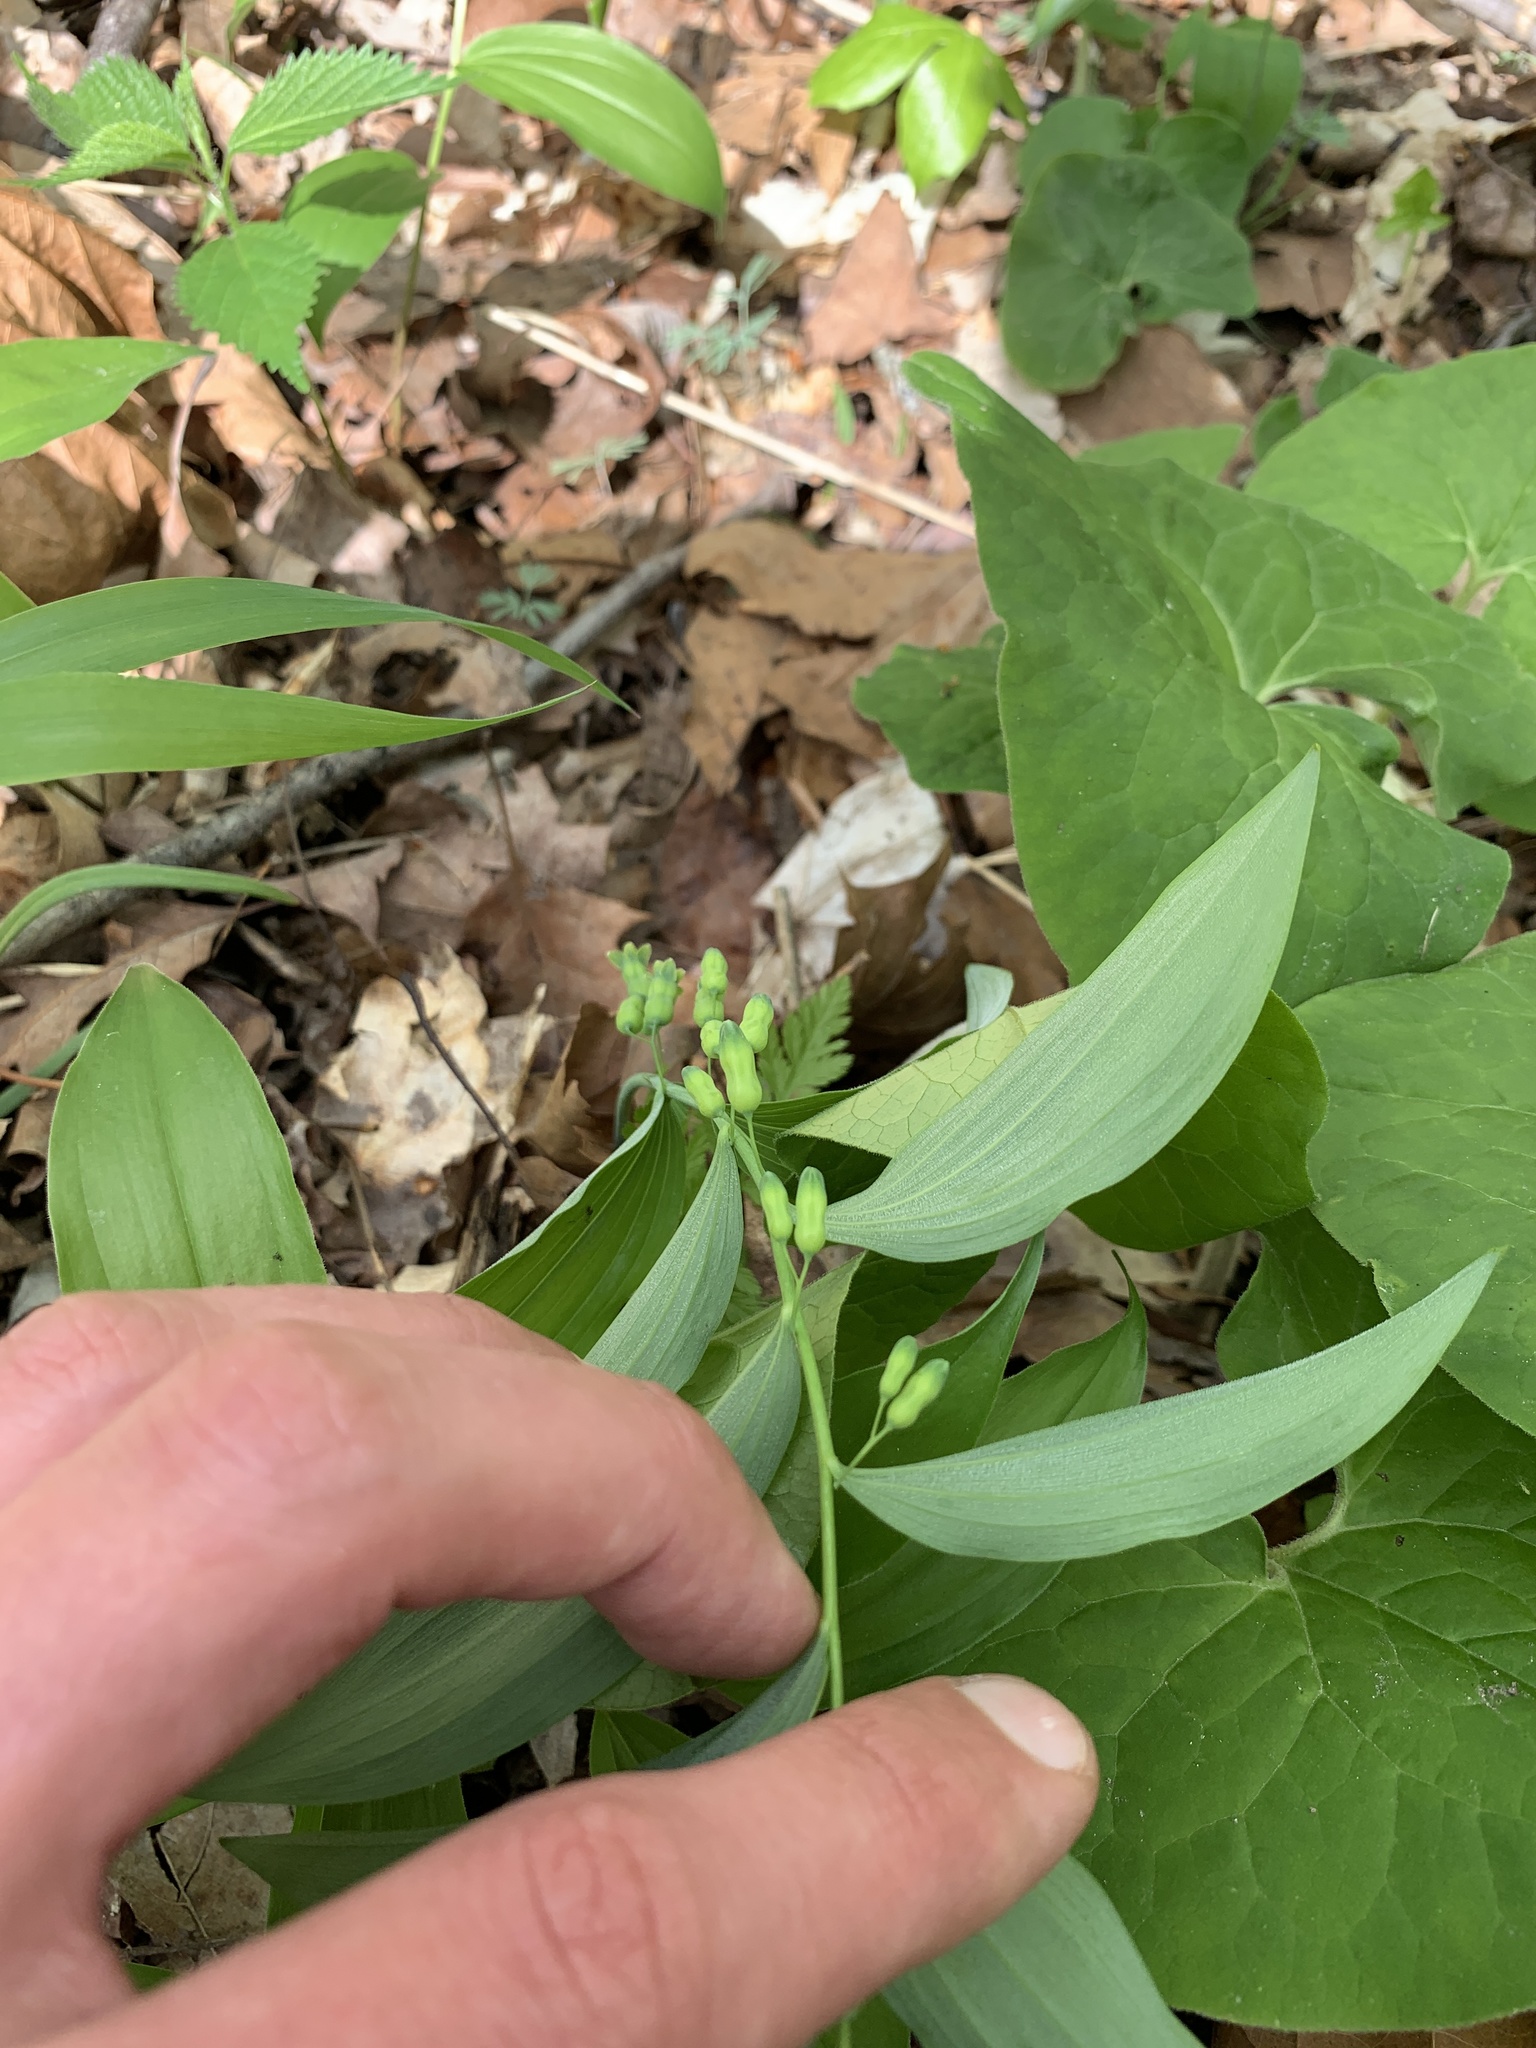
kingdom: Plantae
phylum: Tracheophyta
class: Liliopsida
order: Asparagales
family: Asparagaceae
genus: Polygonatum
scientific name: Polygonatum pubescens
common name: Downy solomon's seal
